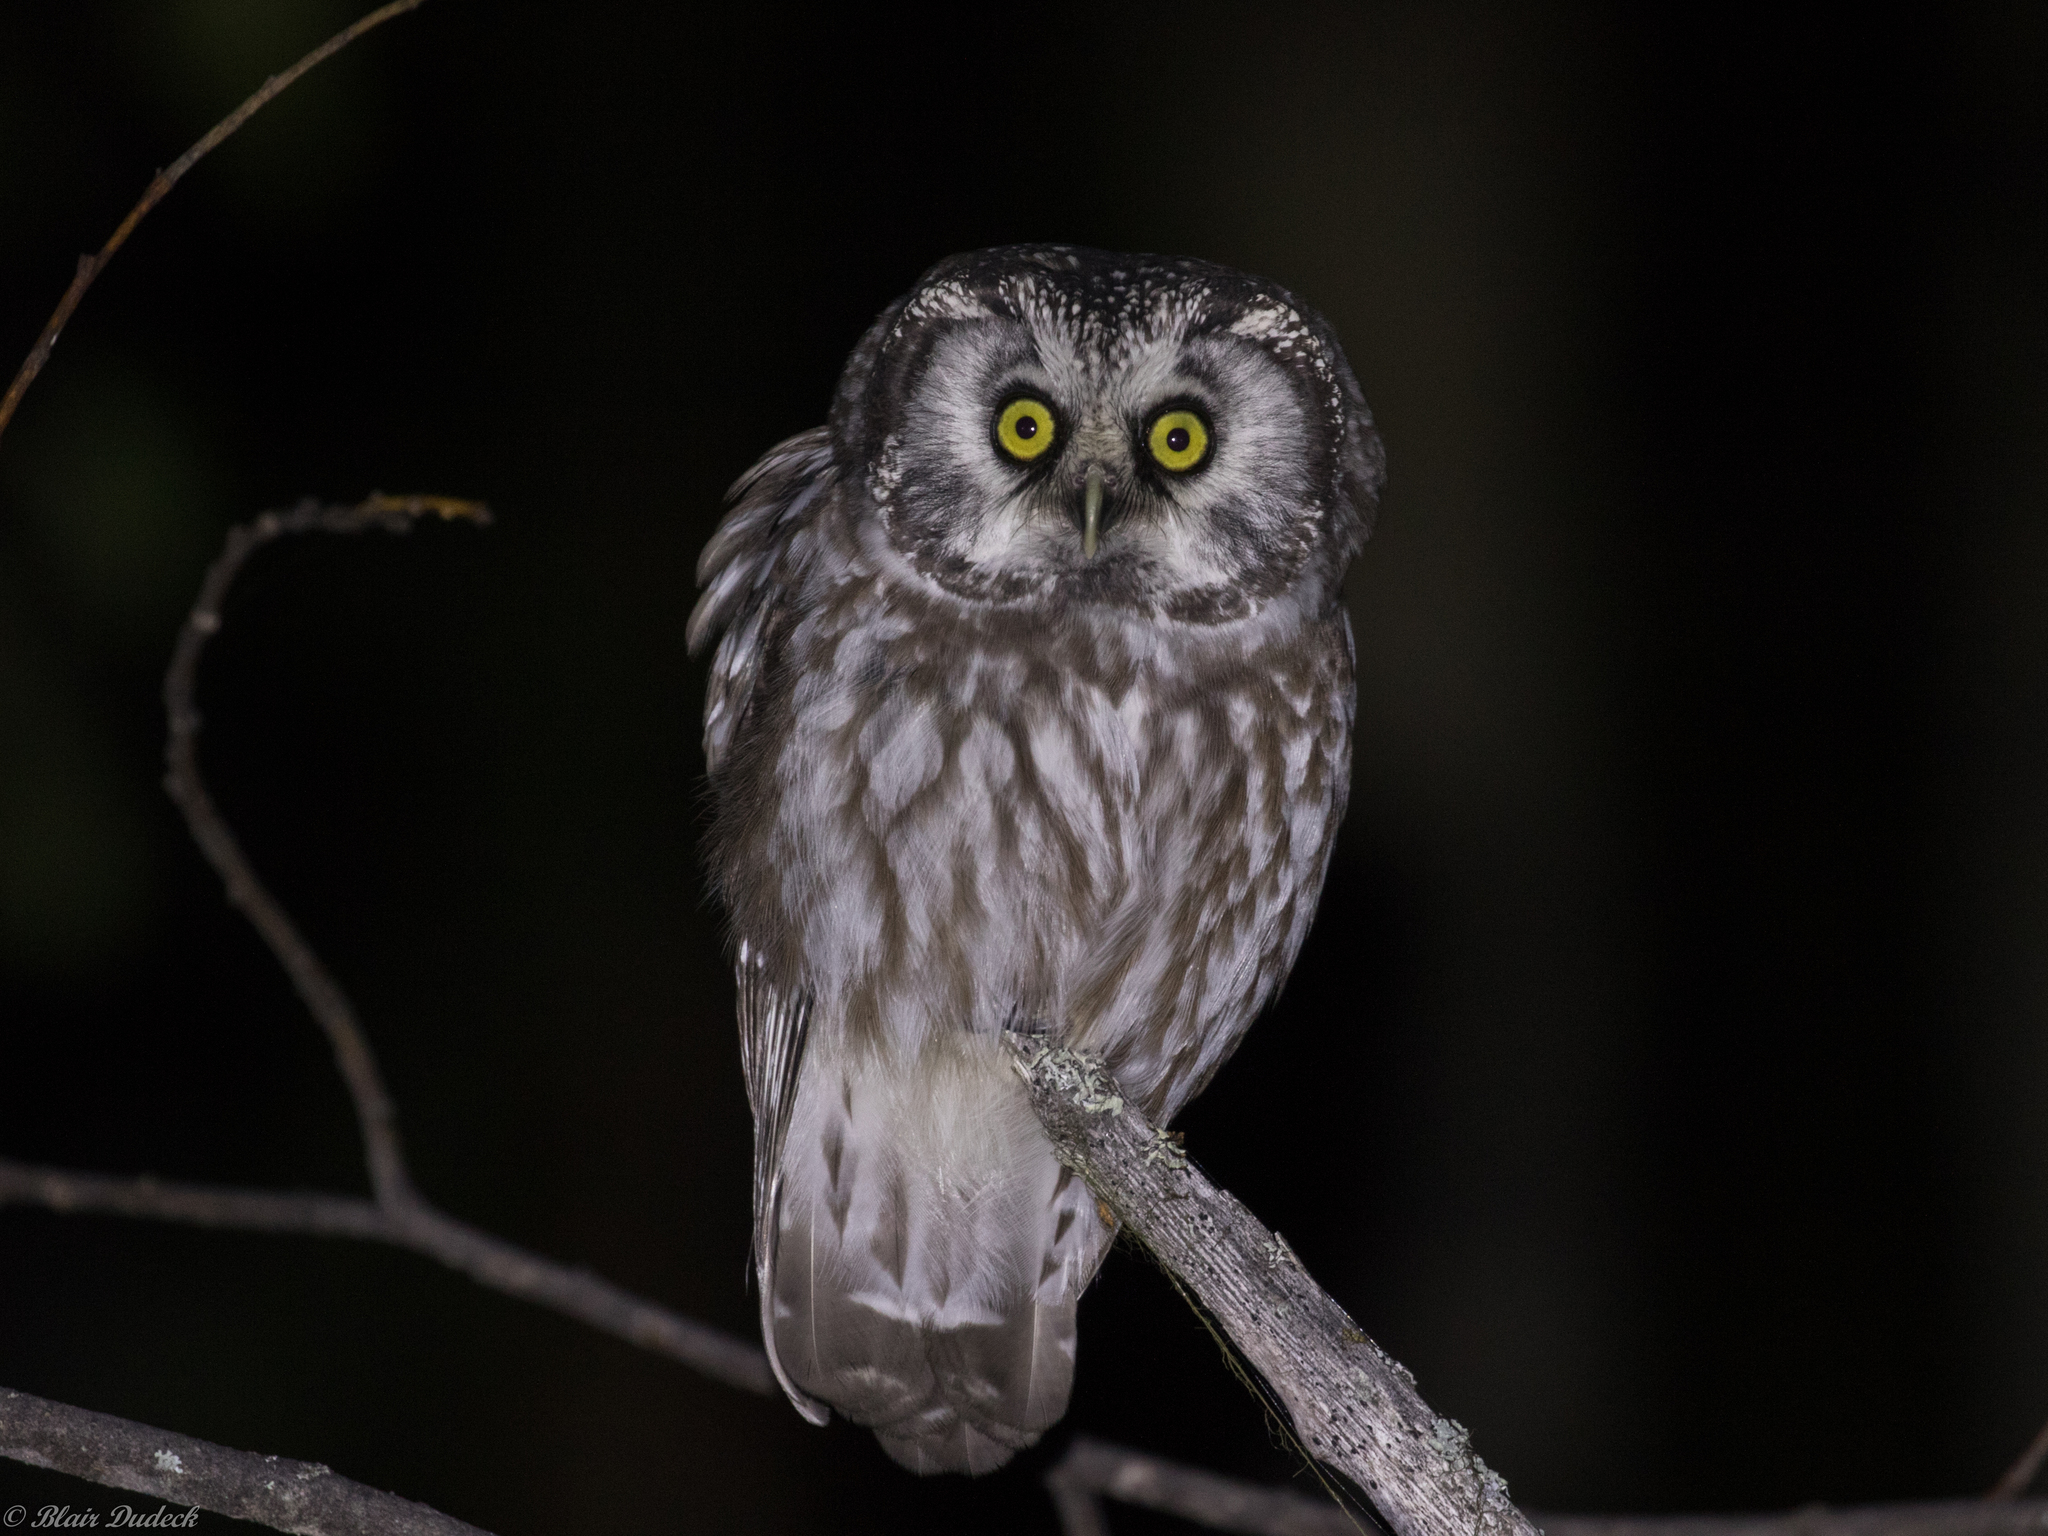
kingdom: Animalia
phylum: Chordata
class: Aves
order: Strigiformes
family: Strigidae
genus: Aegolius
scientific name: Aegolius funereus
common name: Boreal owl
